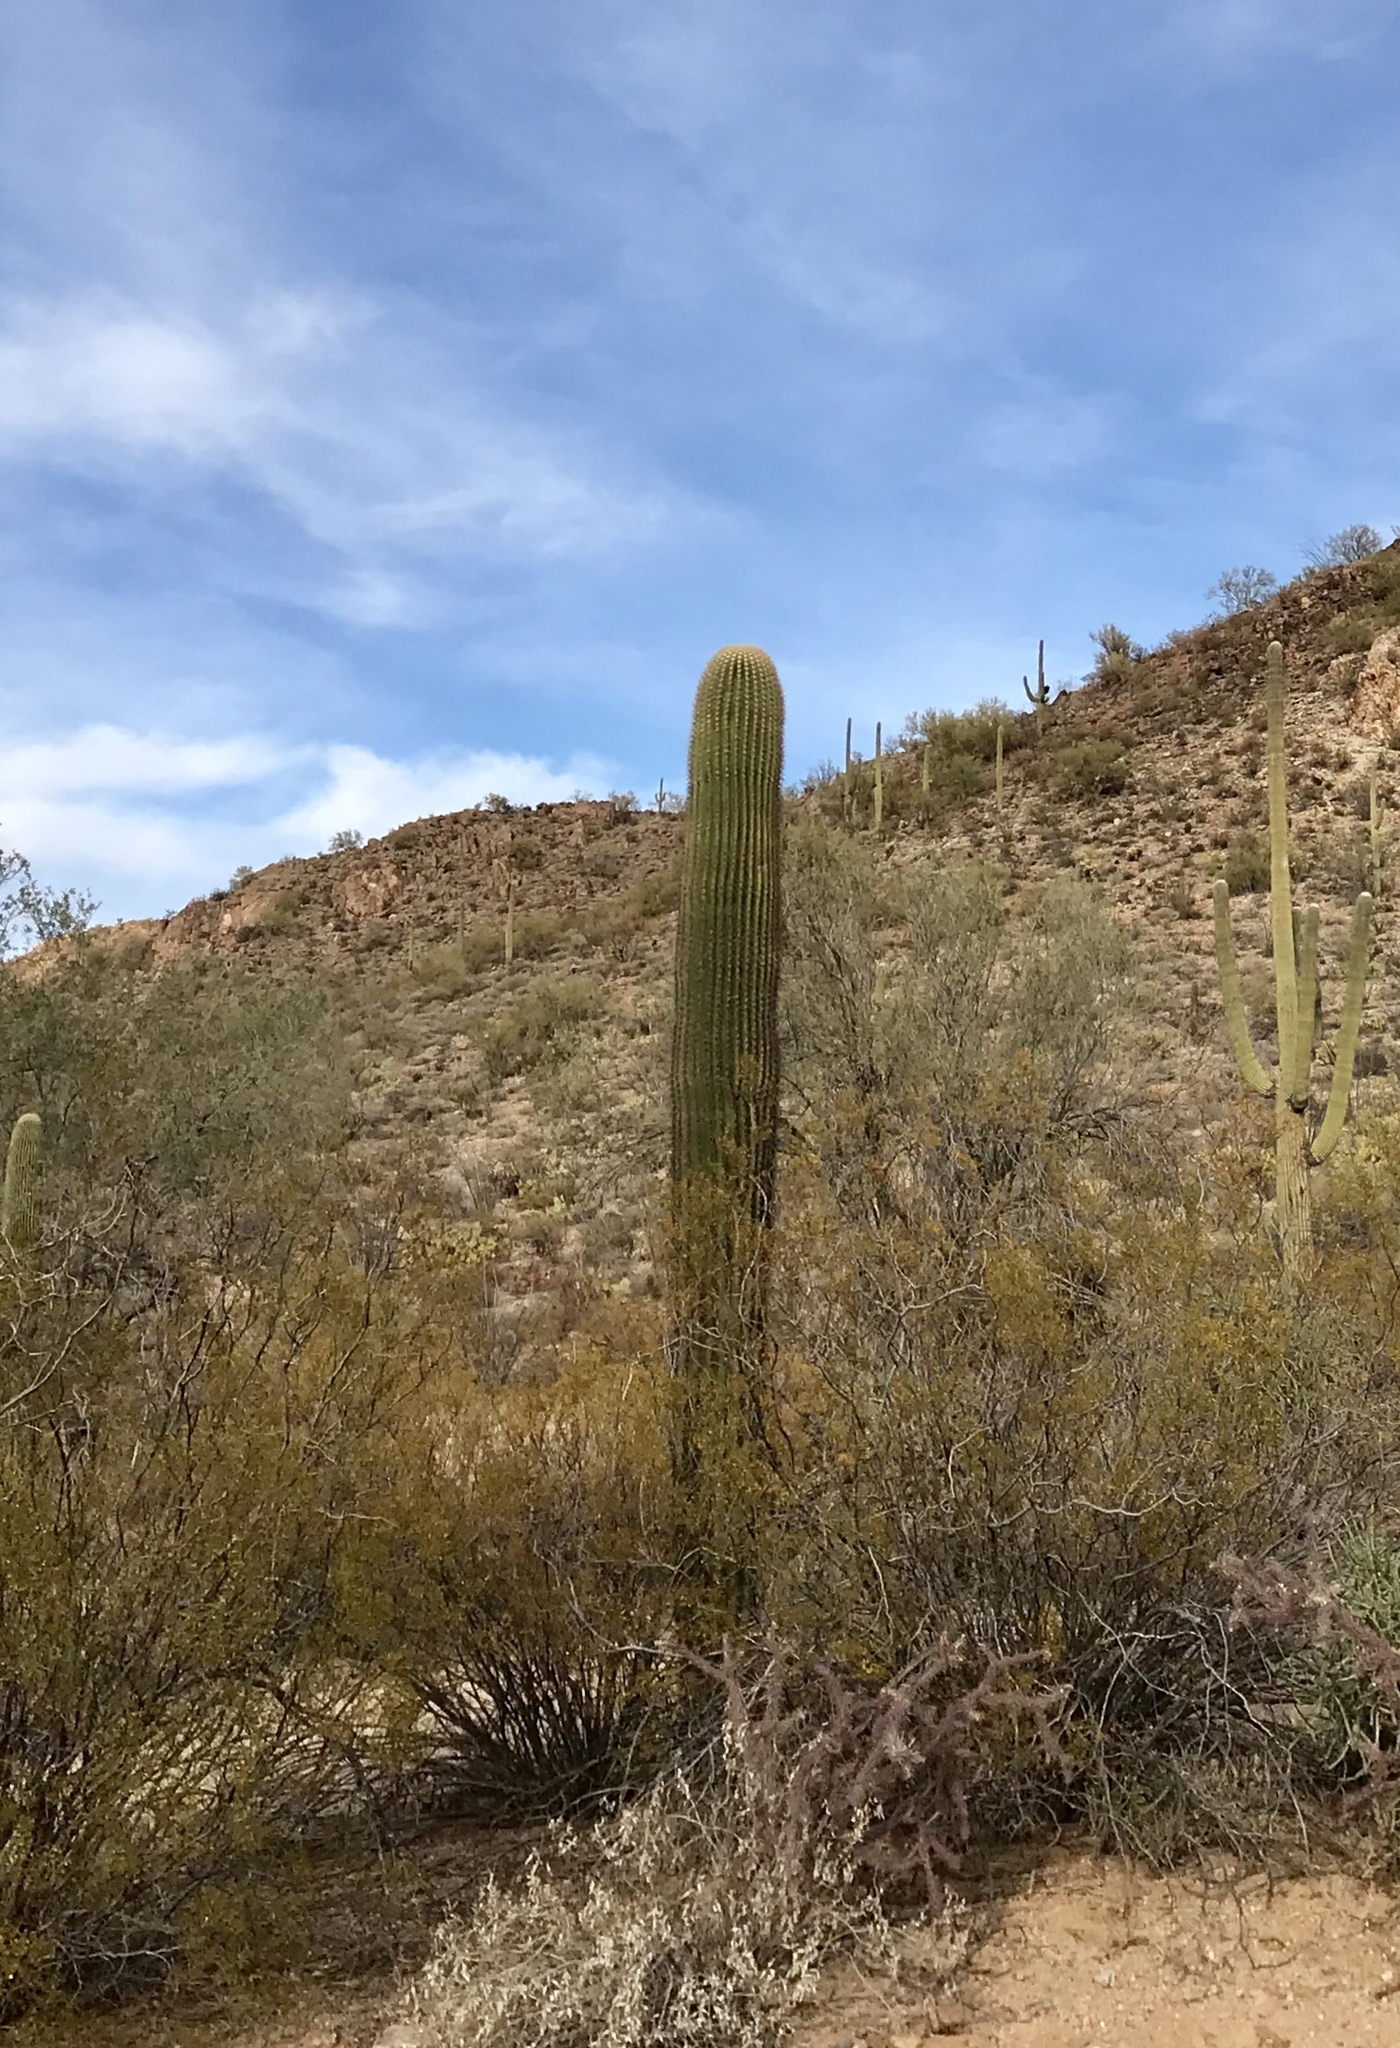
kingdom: Plantae
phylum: Tracheophyta
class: Magnoliopsida
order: Caryophyllales
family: Cactaceae
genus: Carnegiea
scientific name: Carnegiea gigantea
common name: Saguaro
